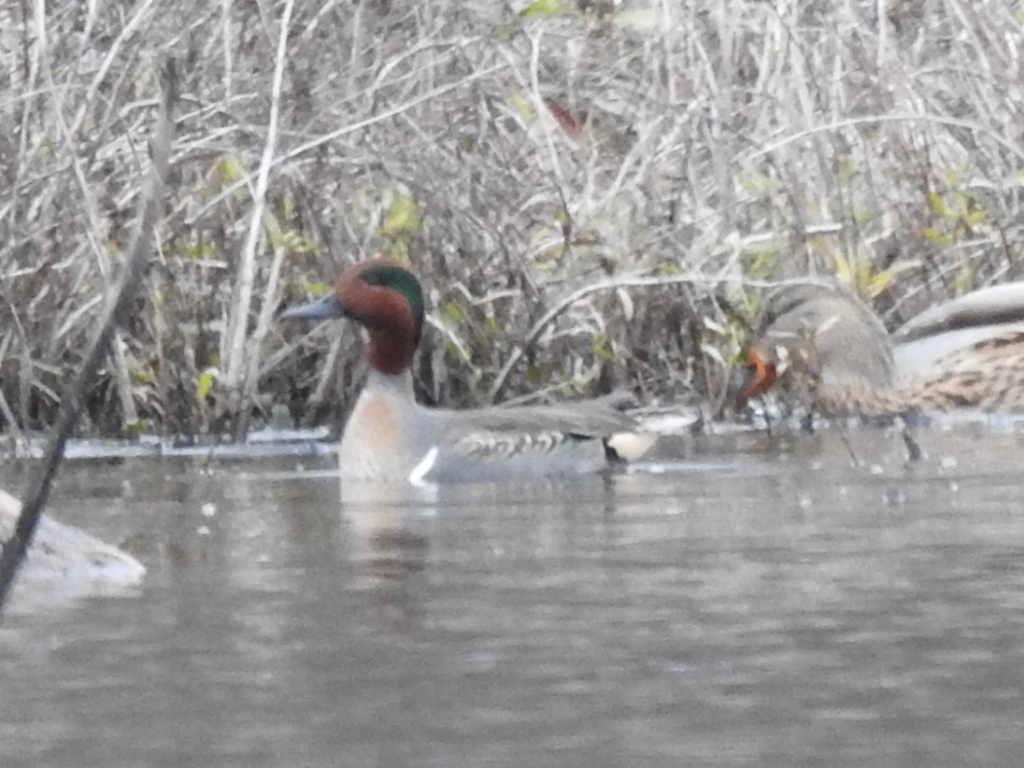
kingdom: Animalia
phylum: Chordata
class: Aves
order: Anseriformes
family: Anatidae
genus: Anas
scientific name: Anas crecca
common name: Eurasian teal
